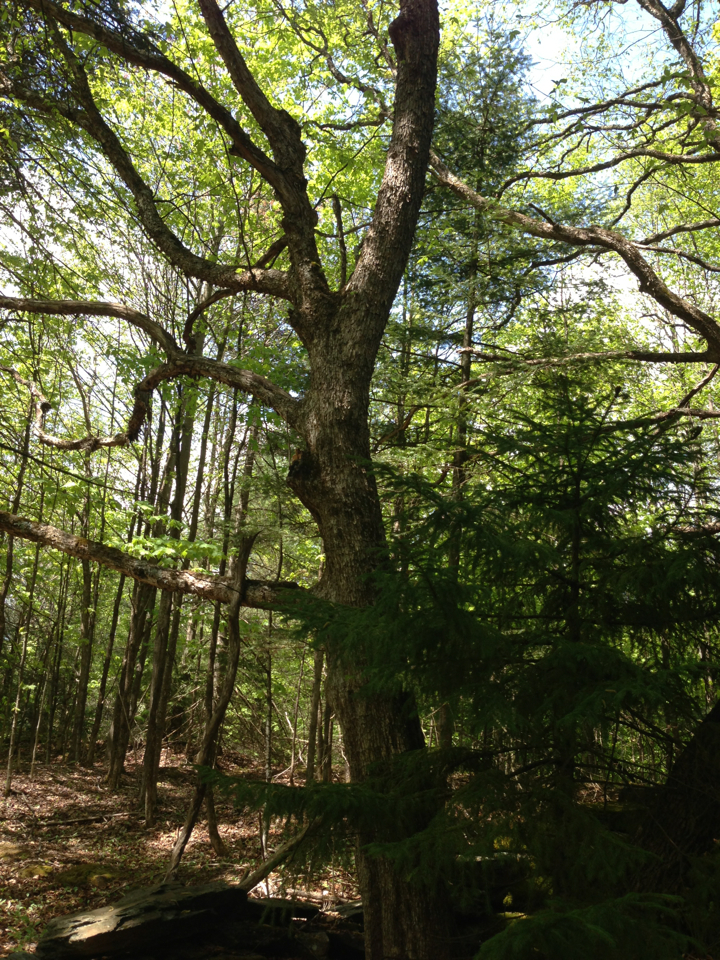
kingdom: Plantae
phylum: Tracheophyta
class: Magnoliopsida
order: Fagales
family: Betulaceae
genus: Ostrya
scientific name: Ostrya virginiana
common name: Ironwood
